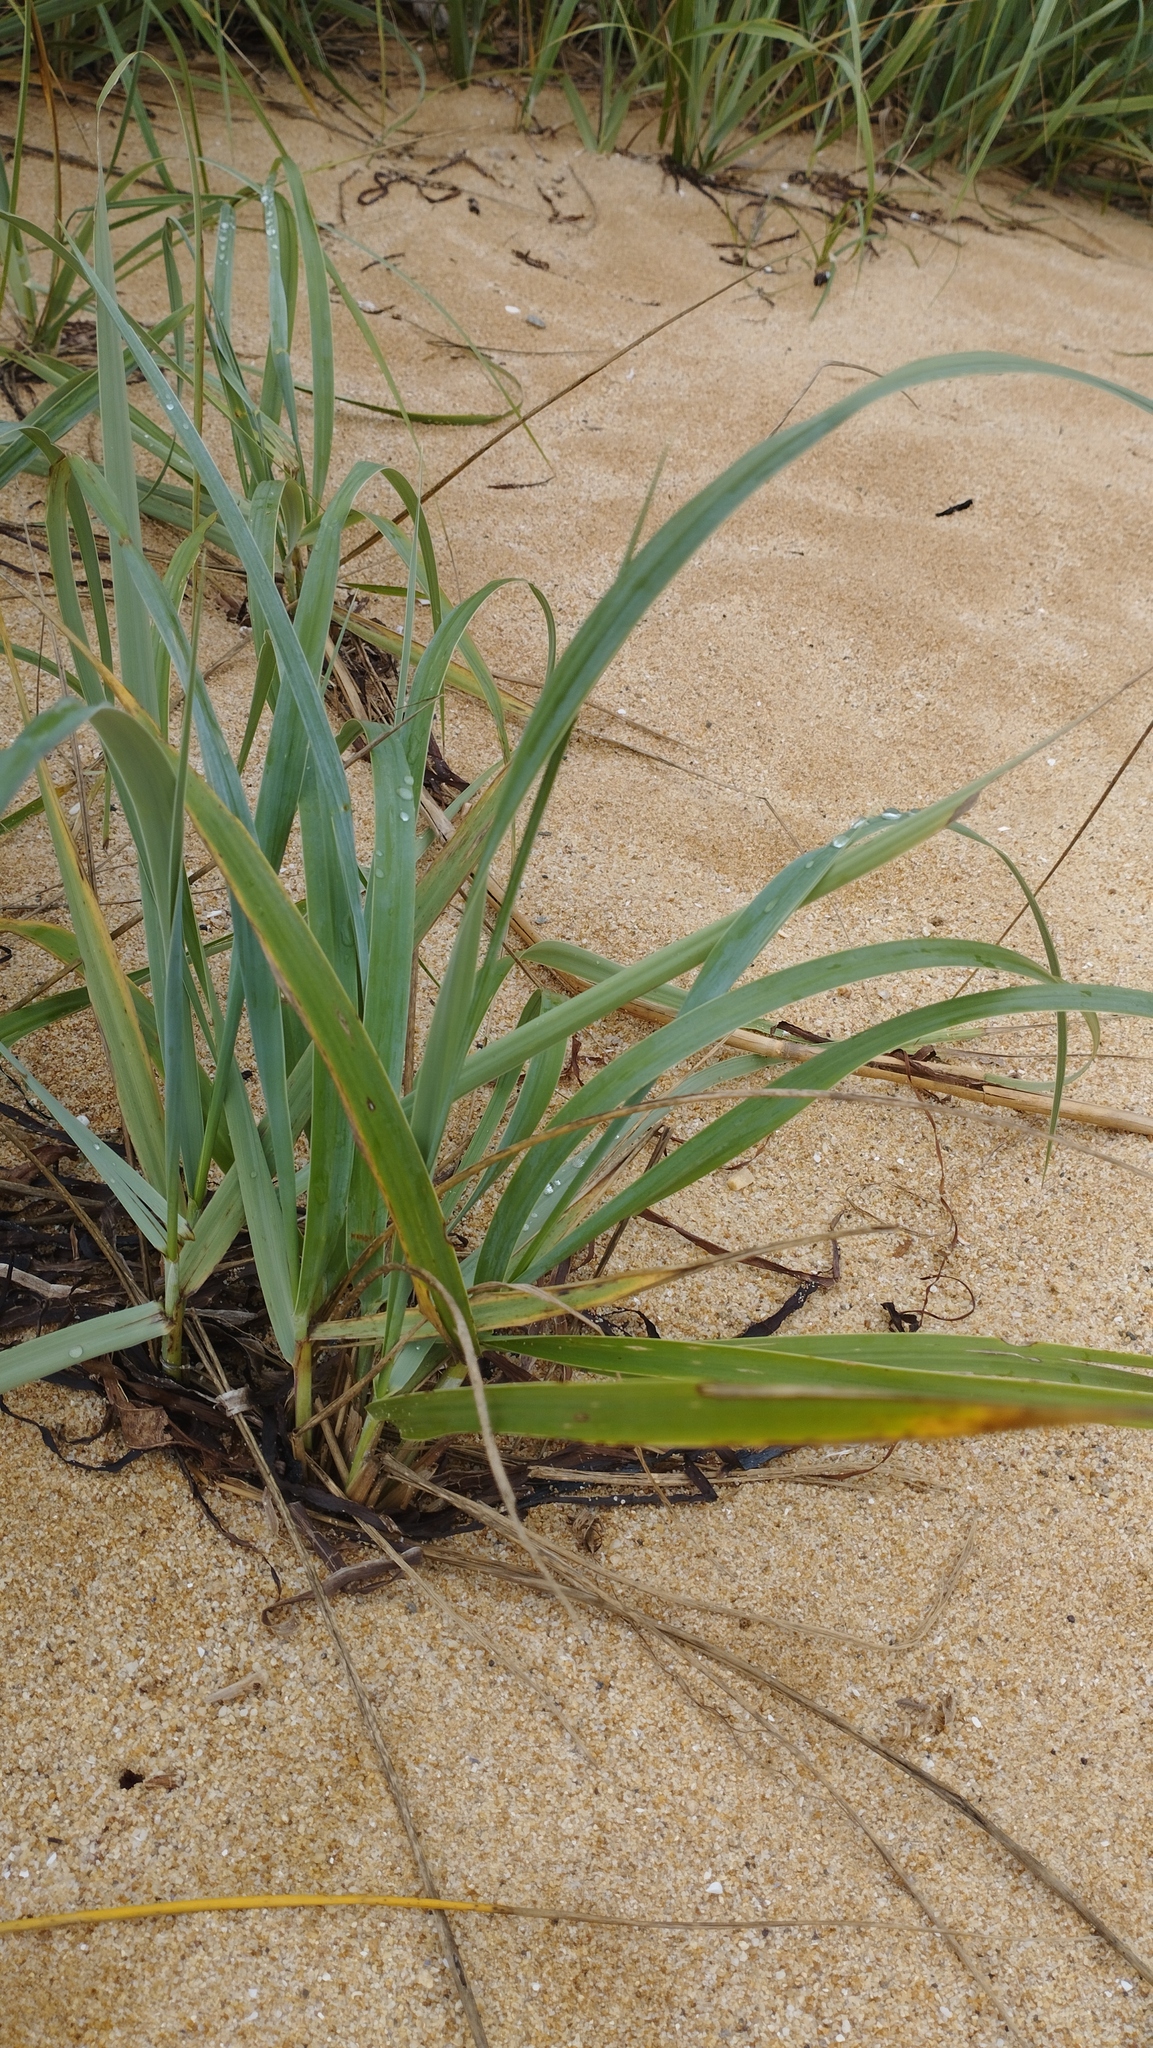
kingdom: Plantae
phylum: Tracheophyta
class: Liliopsida
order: Poales
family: Poaceae
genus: Leymus
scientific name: Leymus mollis
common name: American dune grass
